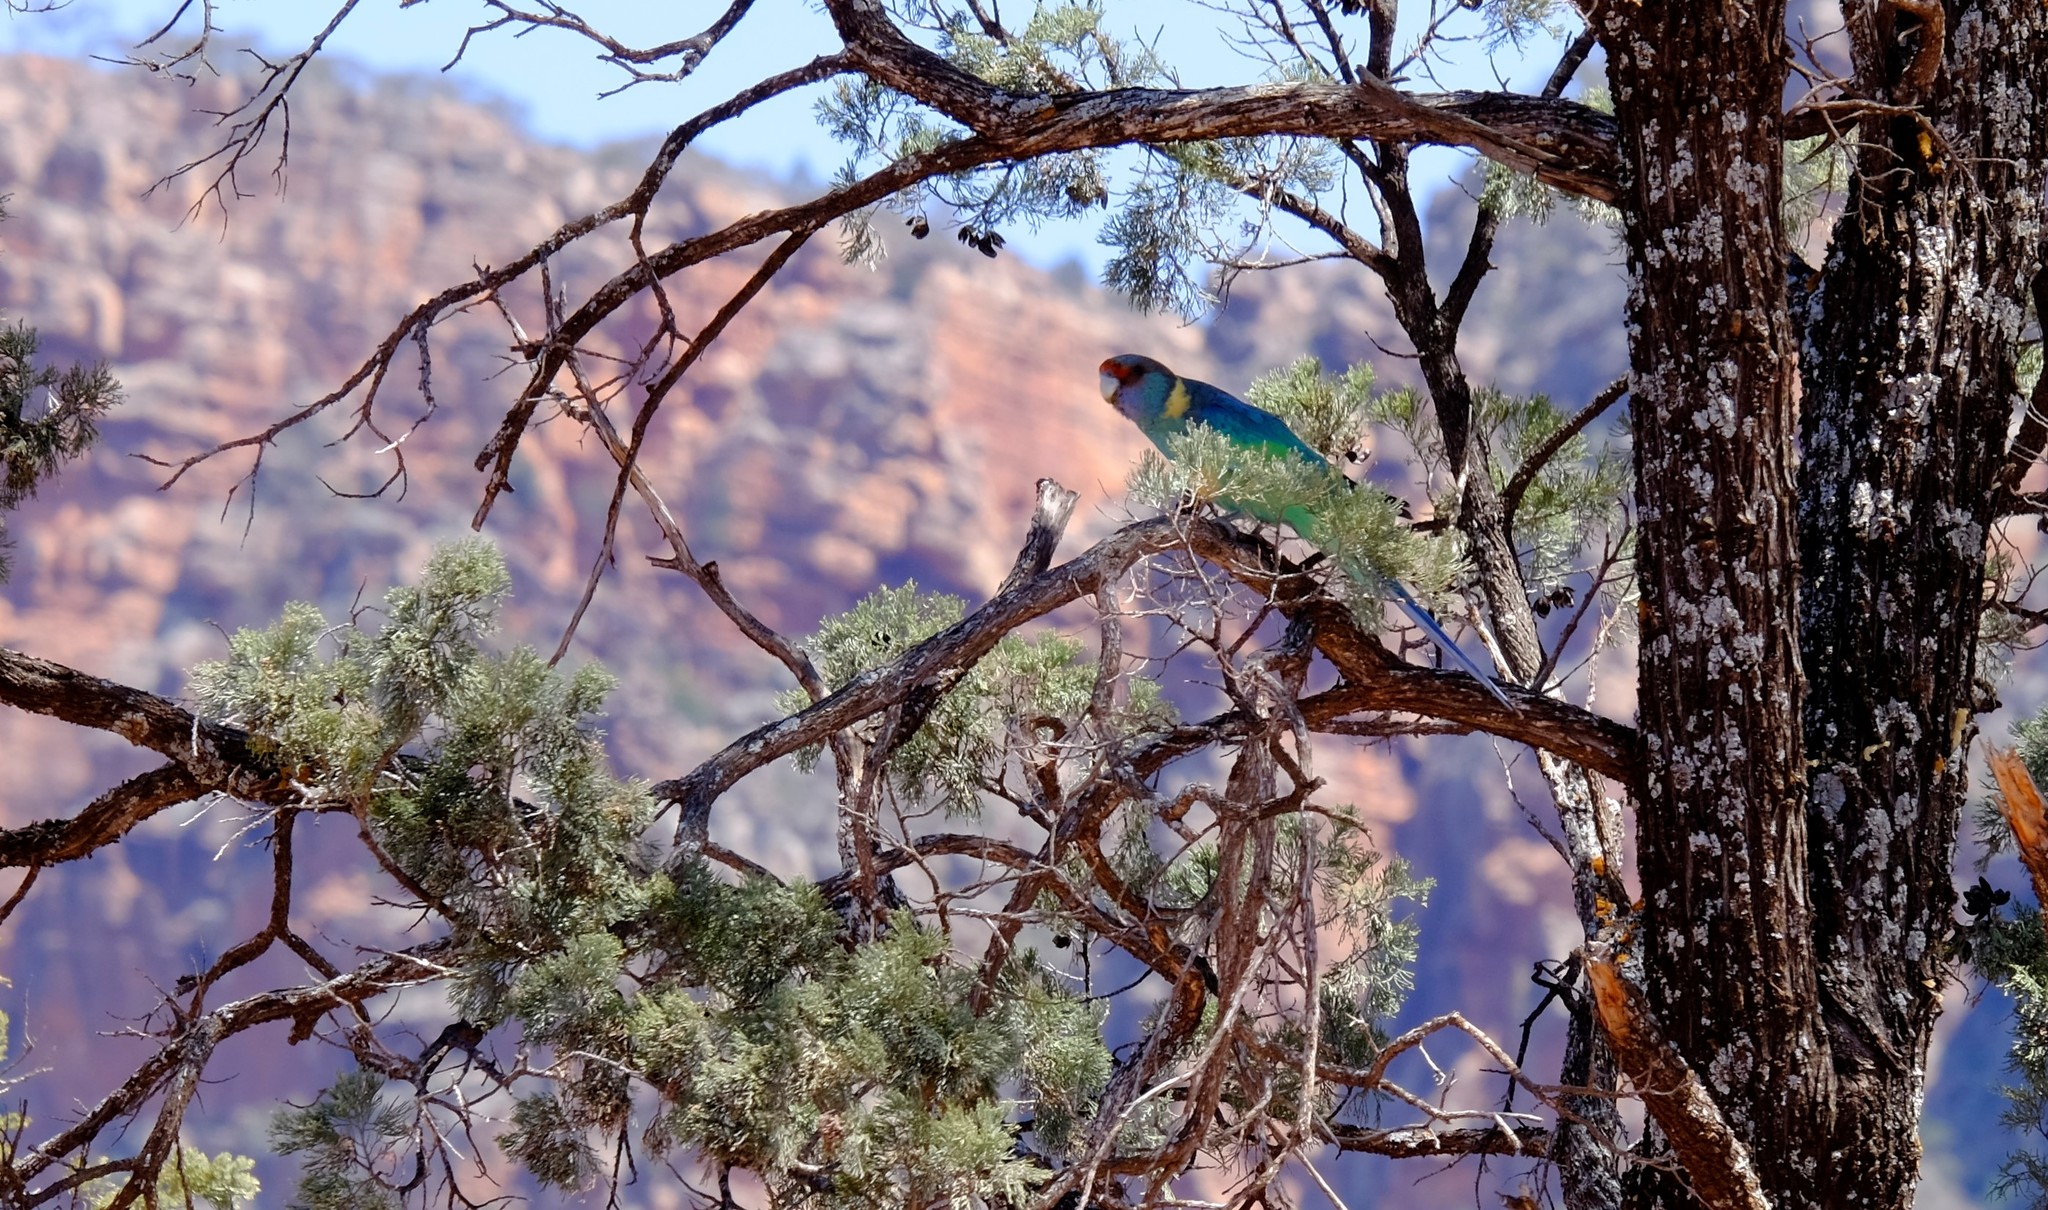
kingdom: Animalia
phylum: Chordata
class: Aves
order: Psittaciformes
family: Psittacidae
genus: Barnardius
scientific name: Barnardius zonarius
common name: Australian ringneck
